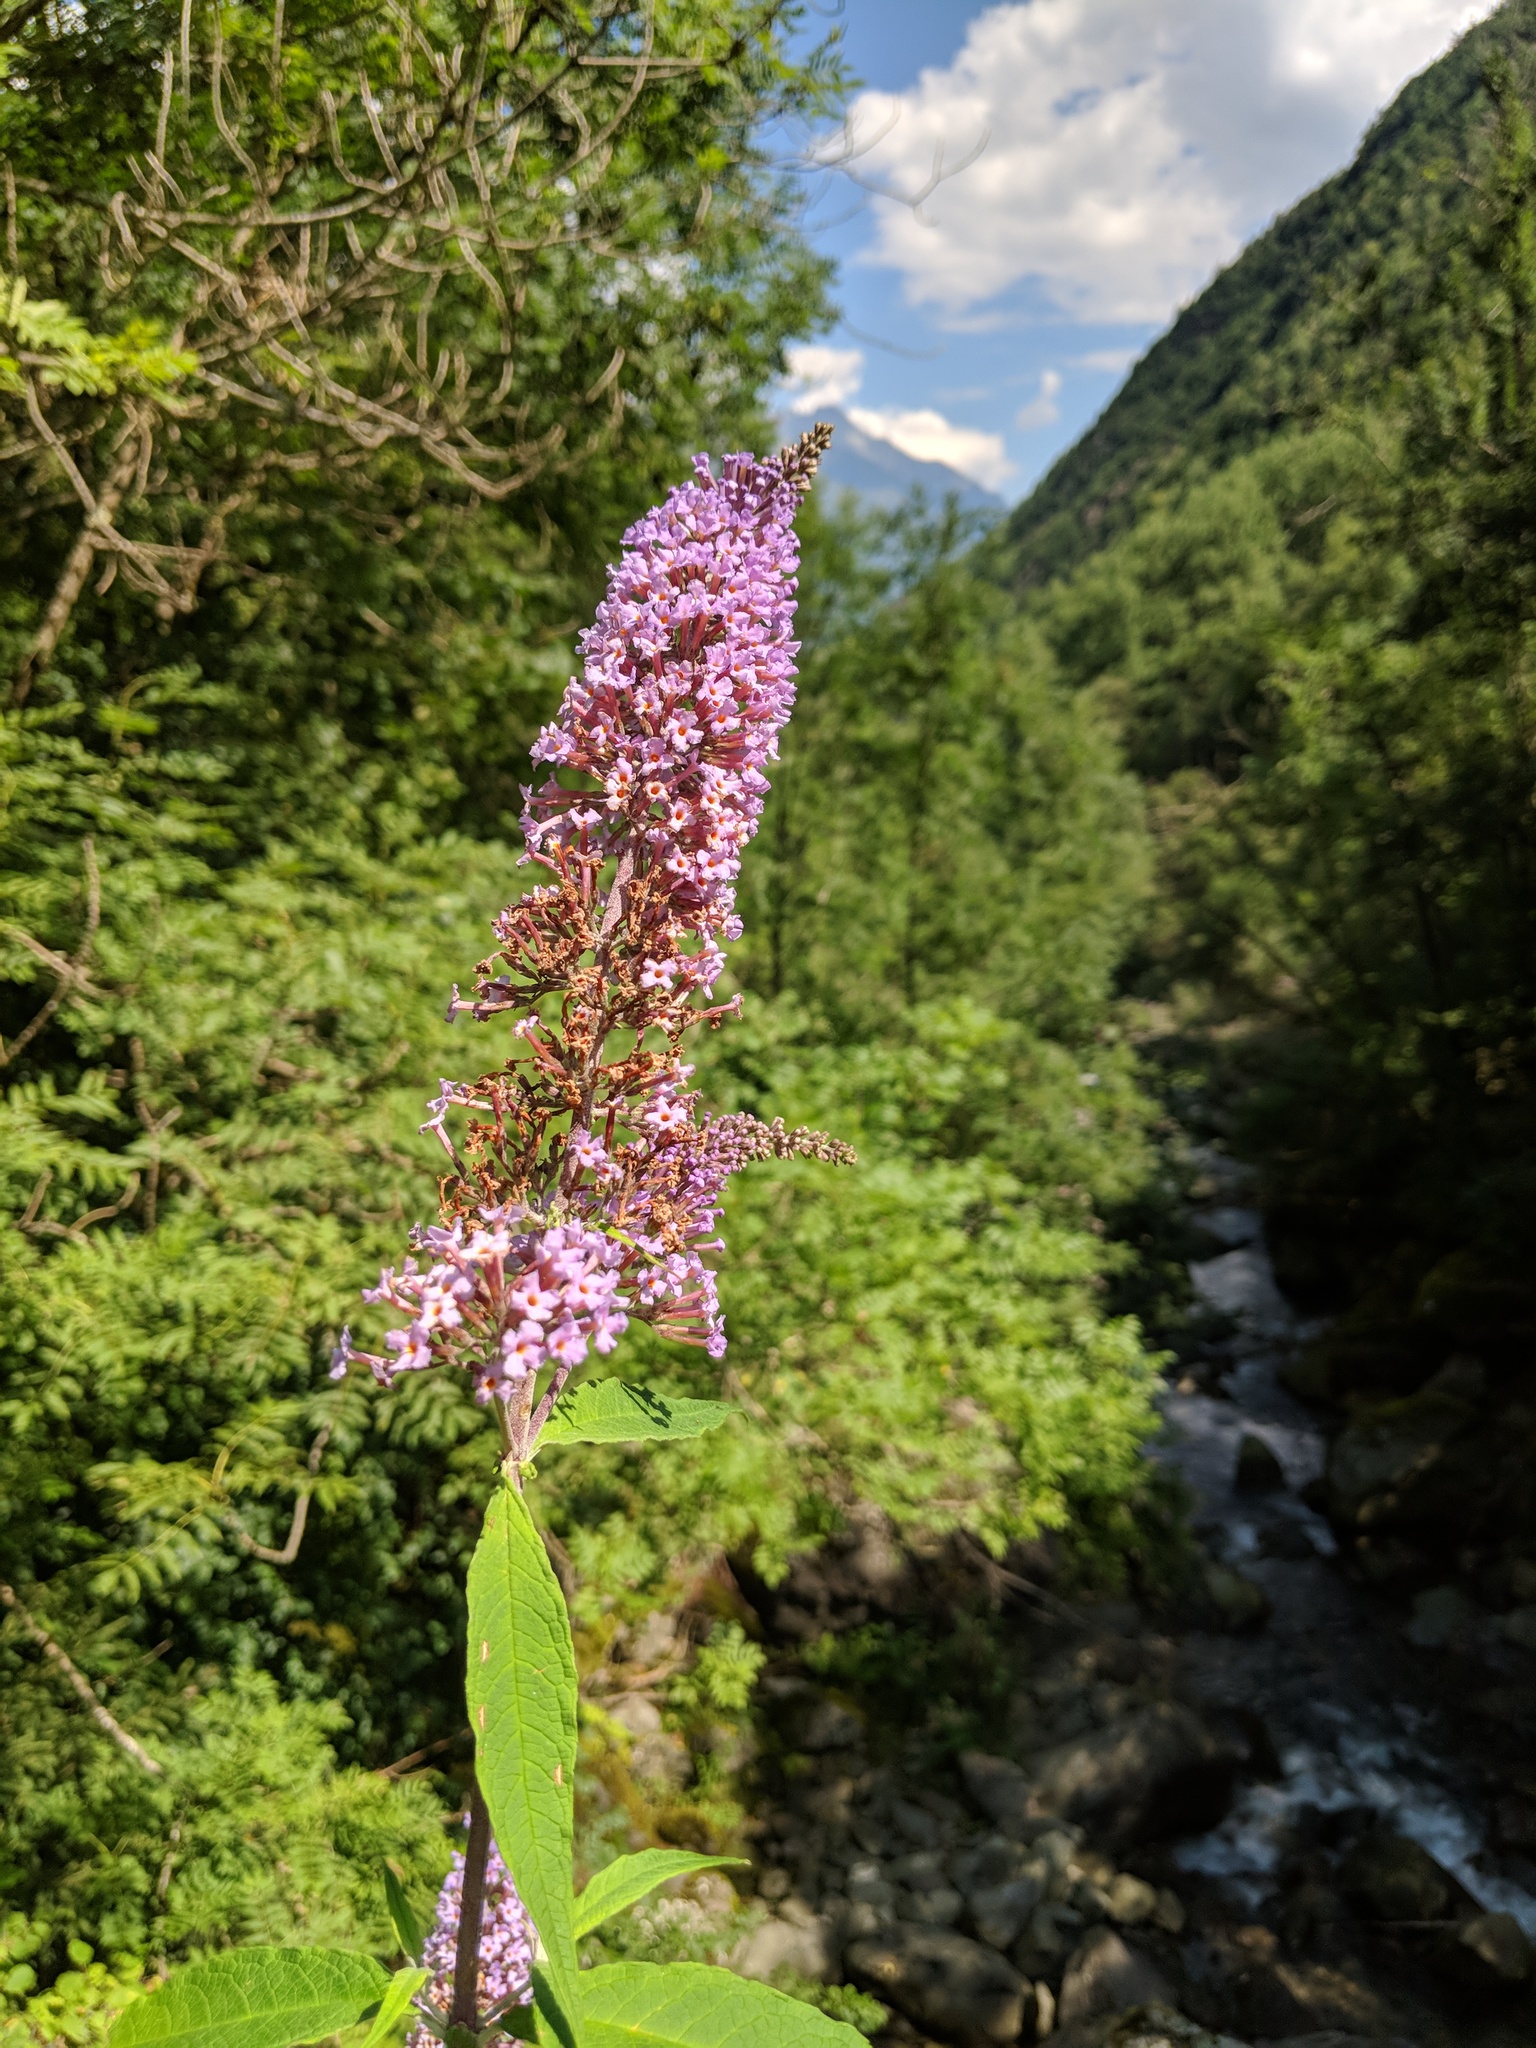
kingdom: Plantae
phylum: Tracheophyta
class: Magnoliopsida
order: Lamiales
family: Scrophulariaceae
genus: Buddleja
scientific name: Buddleja davidii
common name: Butterfly-bush
